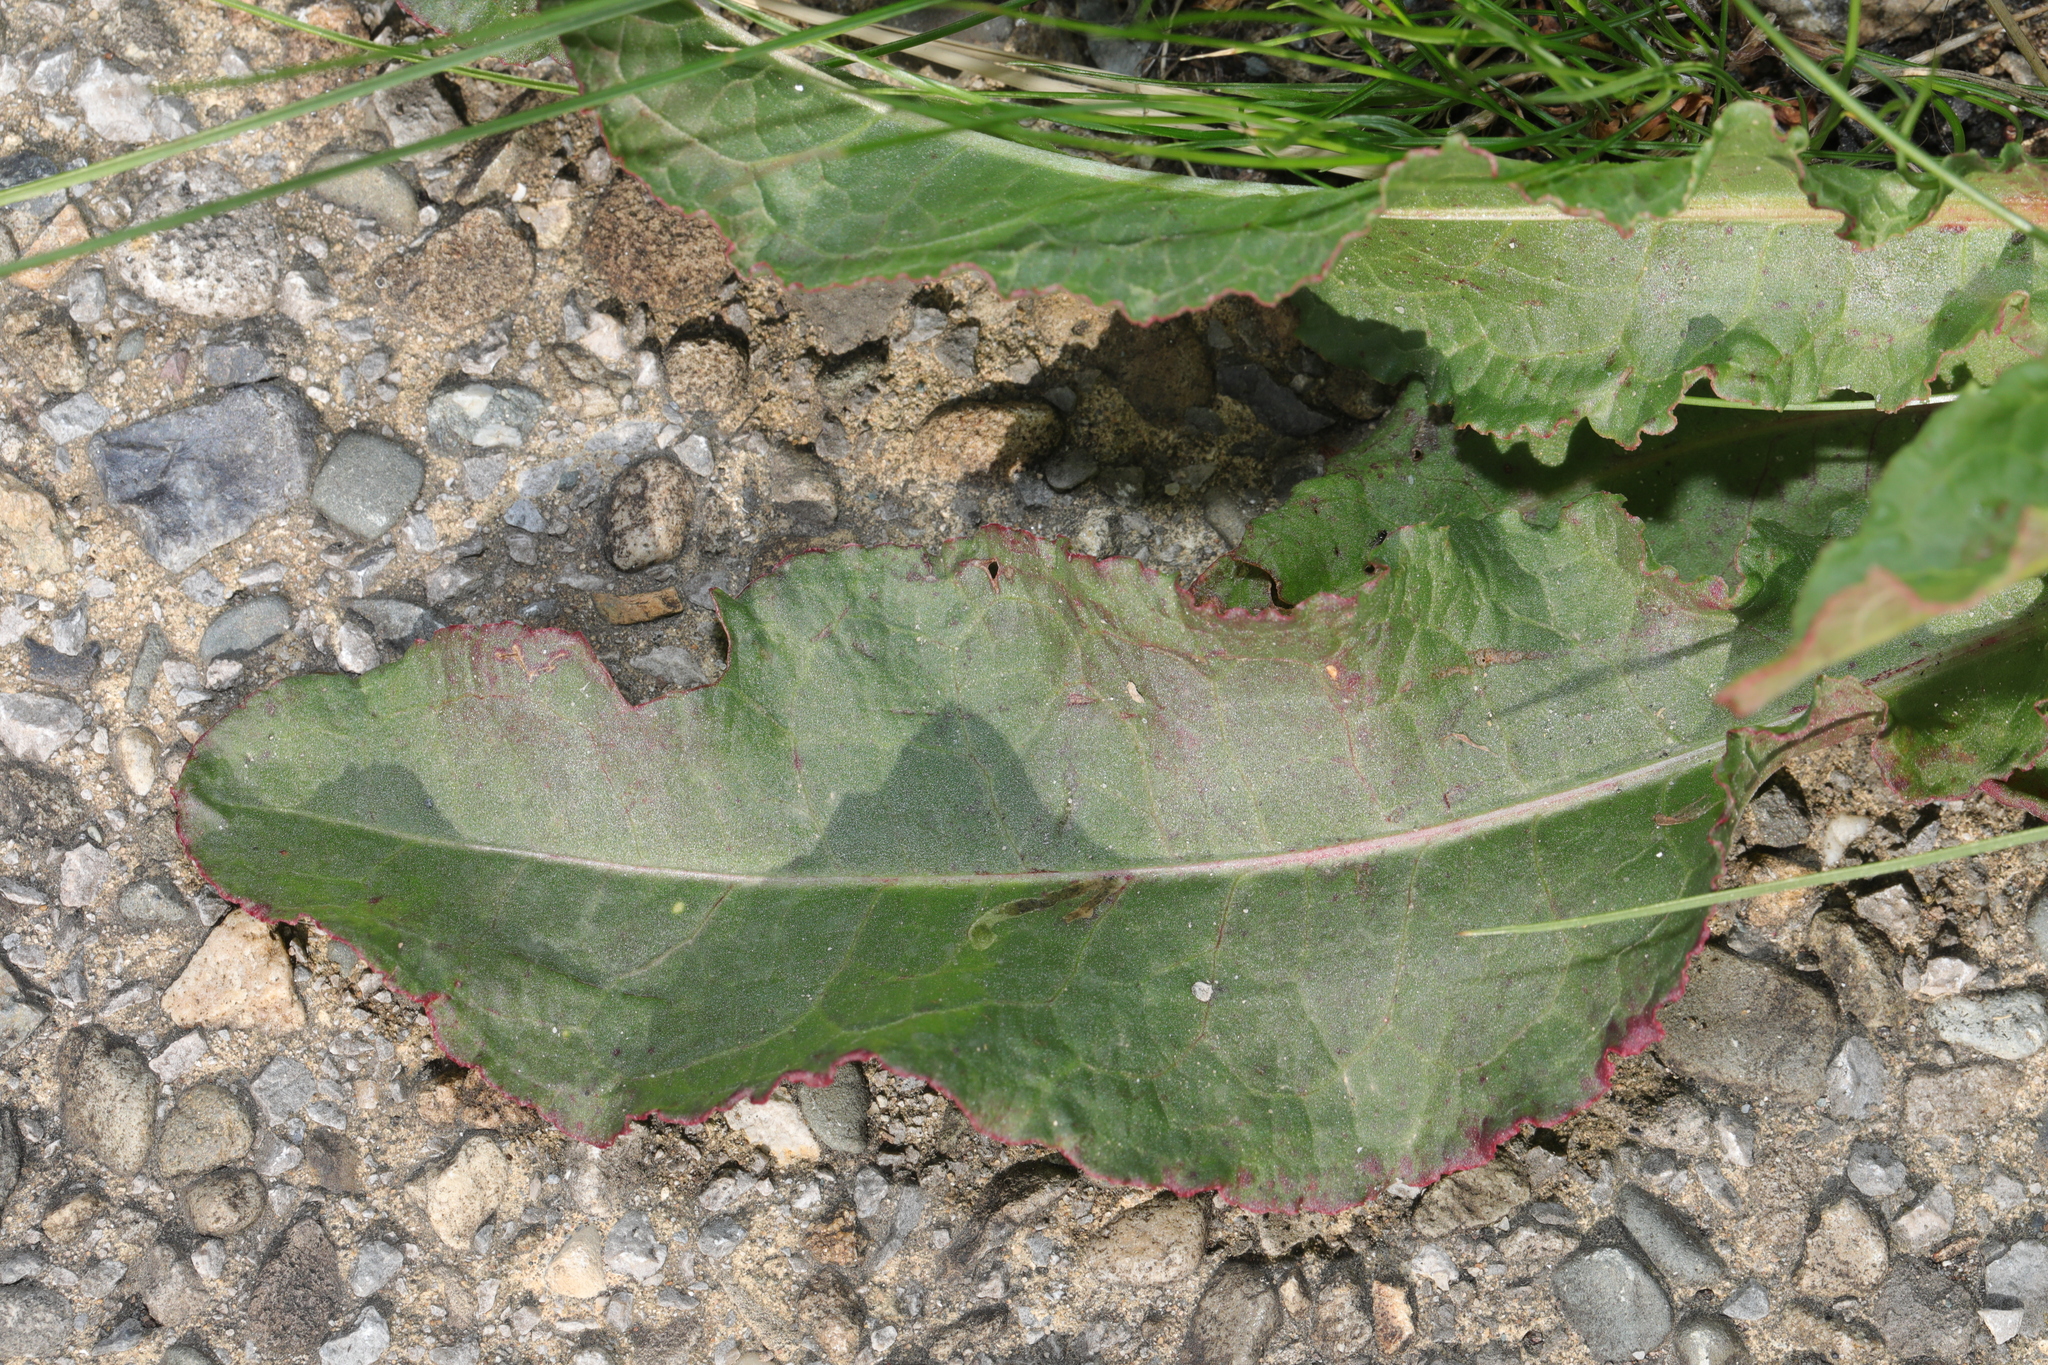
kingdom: Plantae
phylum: Tracheophyta
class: Magnoliopsida
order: Caryophyllales
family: Polygonaceae
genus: Rumex
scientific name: Rumex crispus
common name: Curled dock
